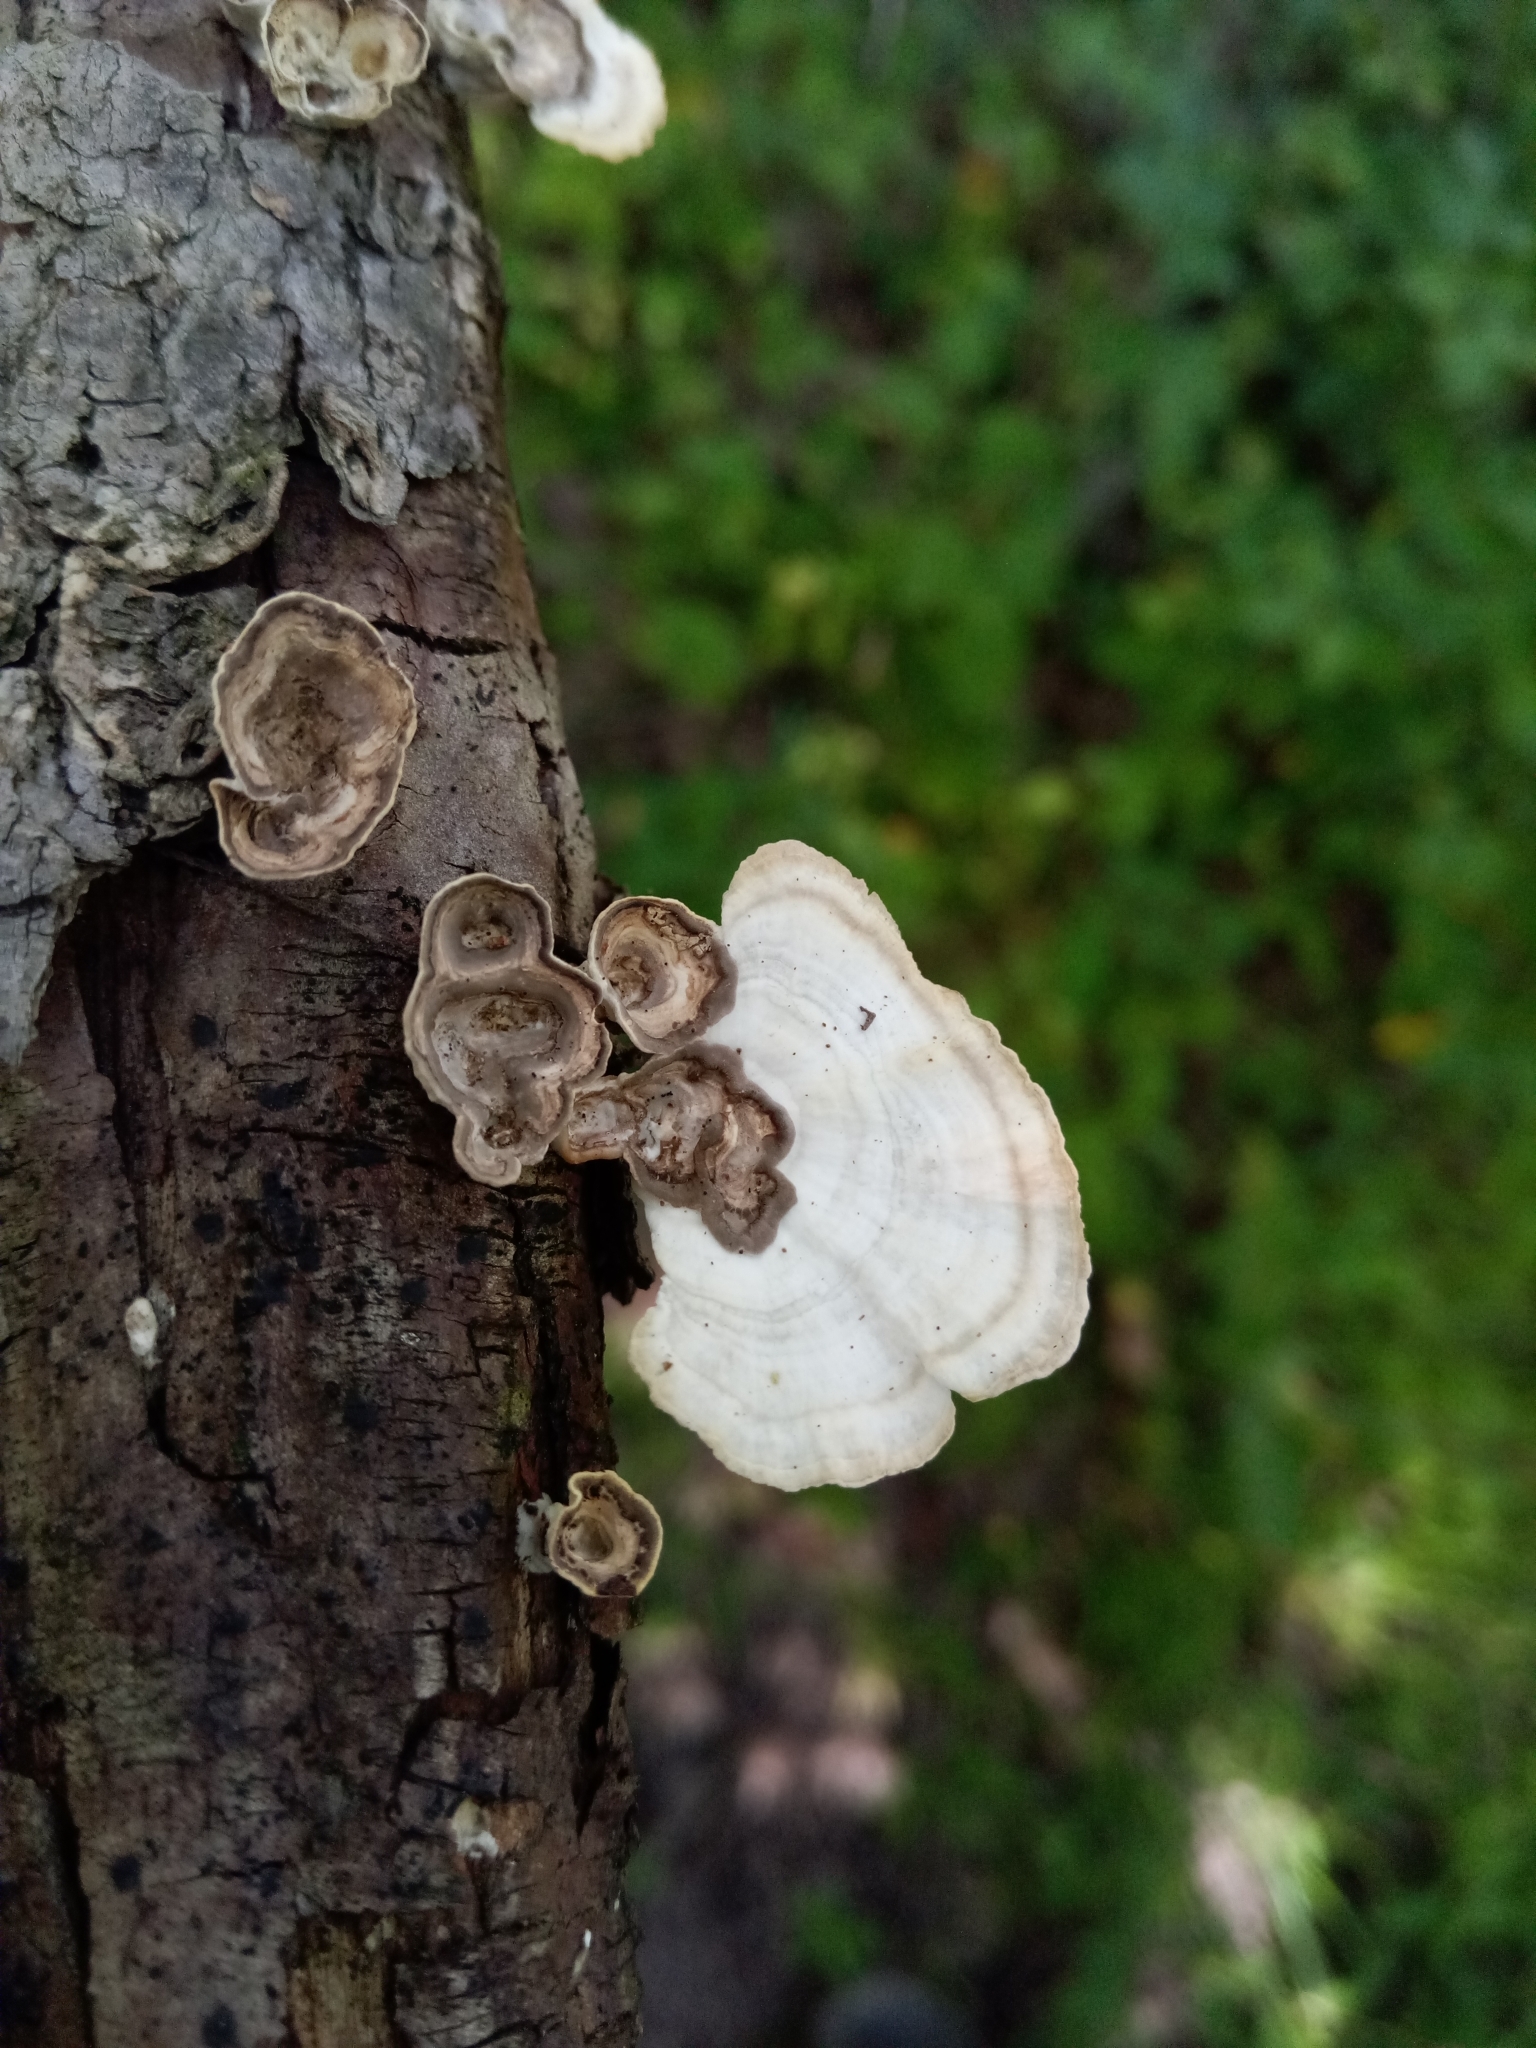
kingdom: Fungi
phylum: Basidiomycota
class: Agaricomycetes
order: Polyporales
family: Polyporaceae
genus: Poronidulus
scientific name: Poronidulus conchifer
